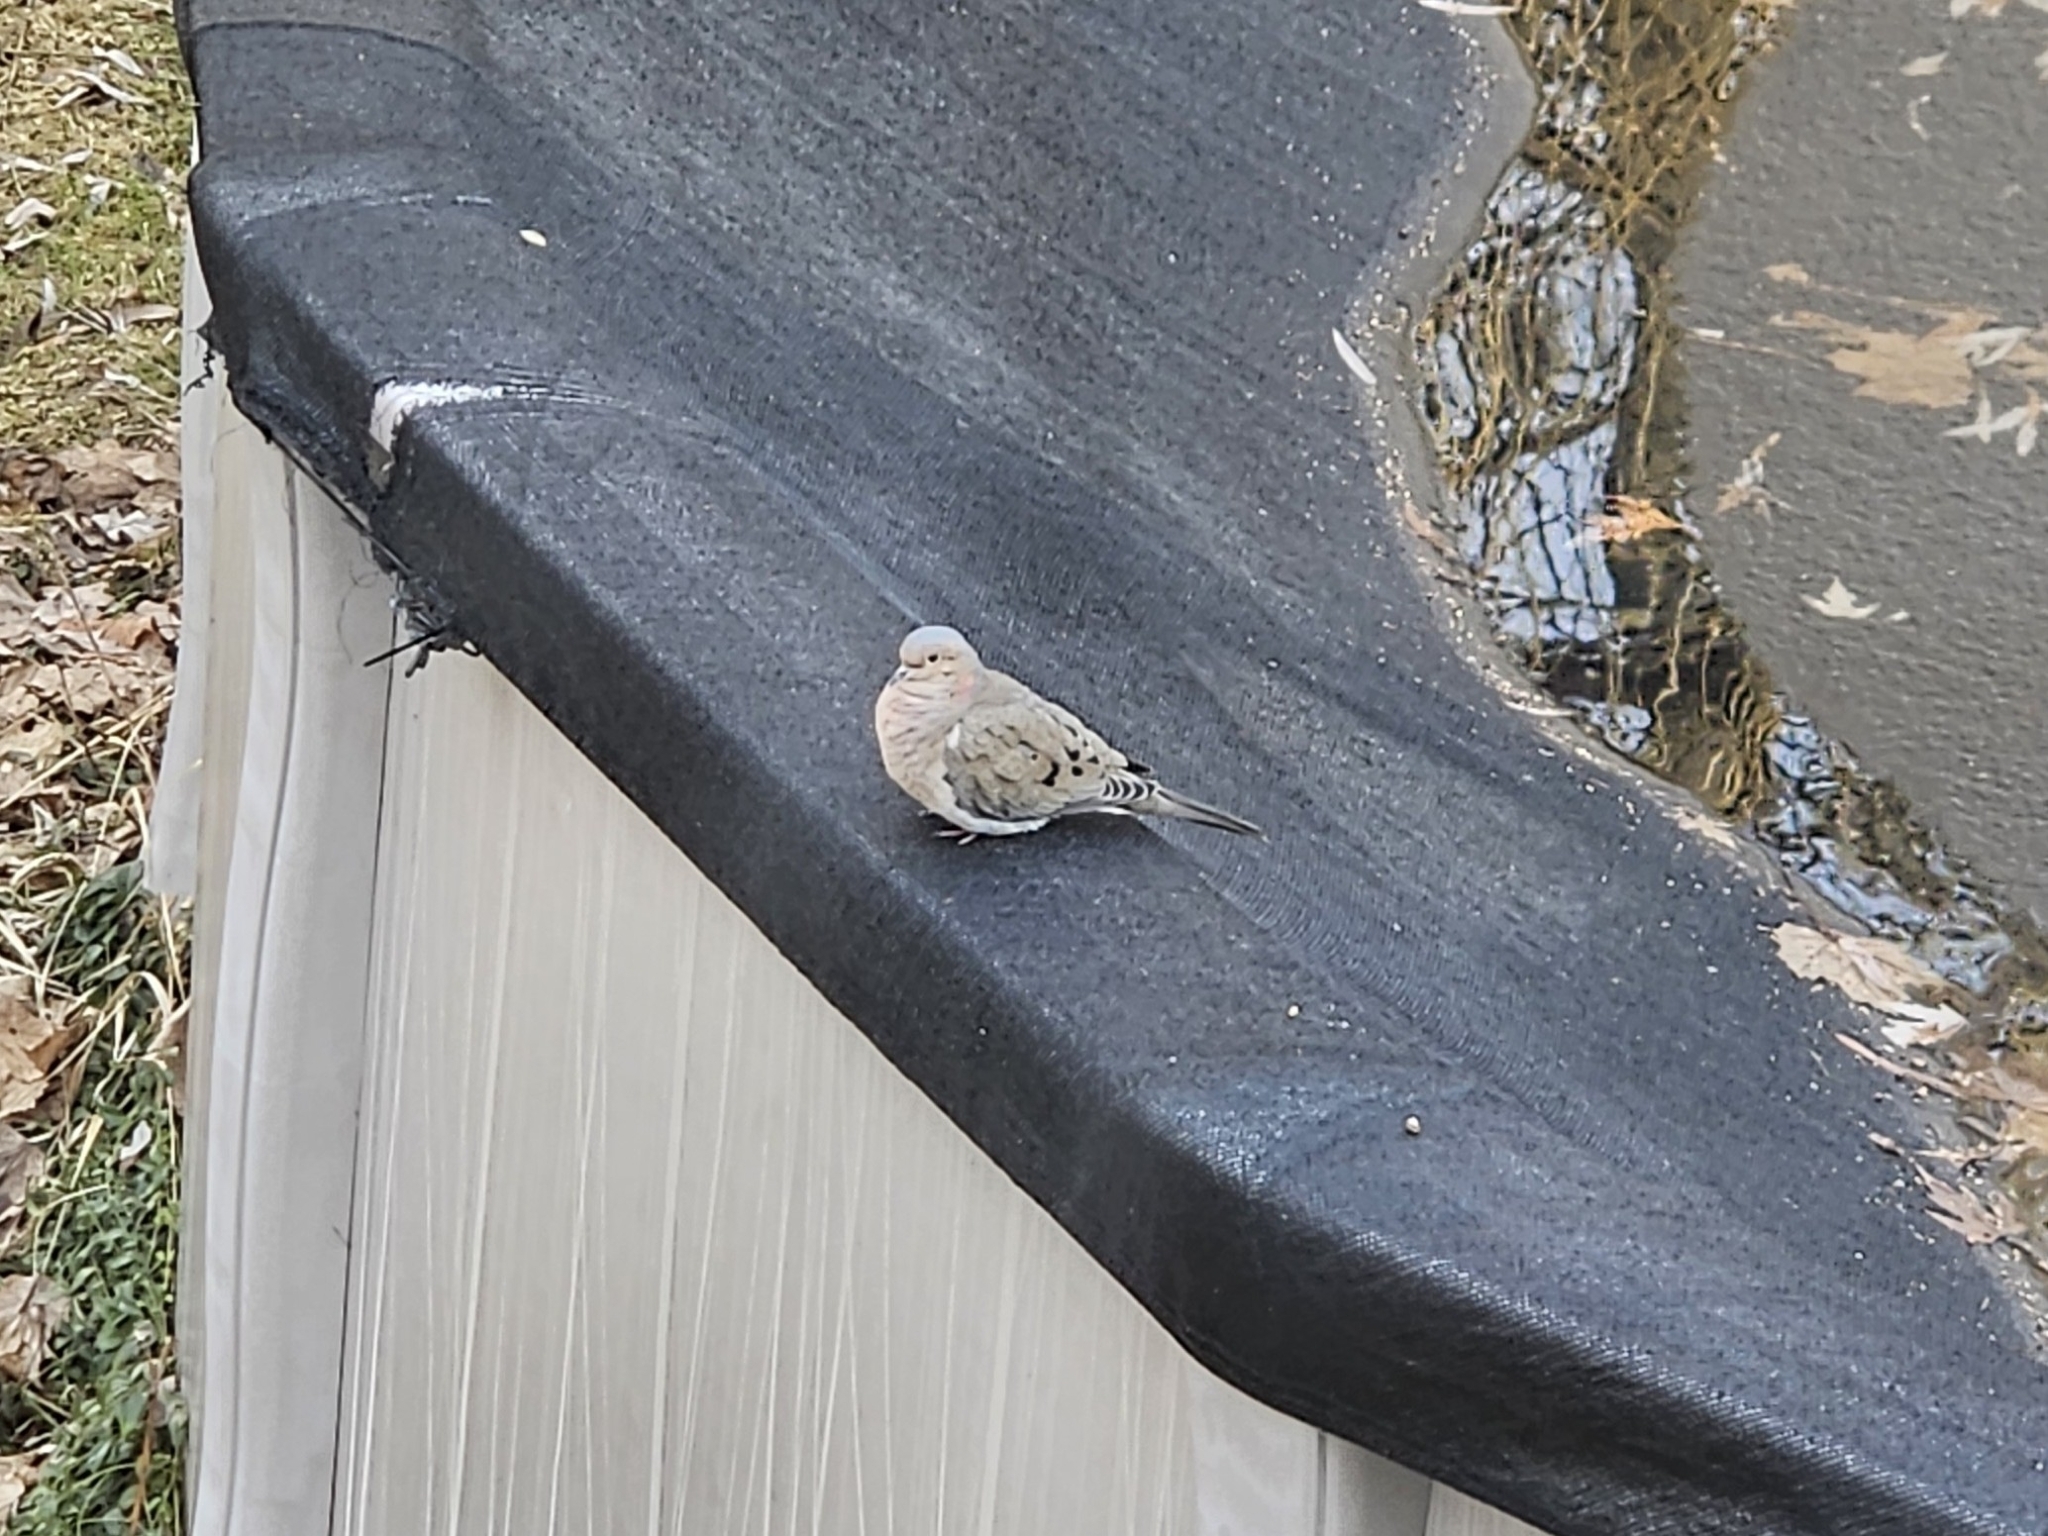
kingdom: Animalia
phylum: Chordata
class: Aves
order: Columbiformes
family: Columbidae
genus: Zenaida
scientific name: Zenaida macroura
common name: Mourning dove
